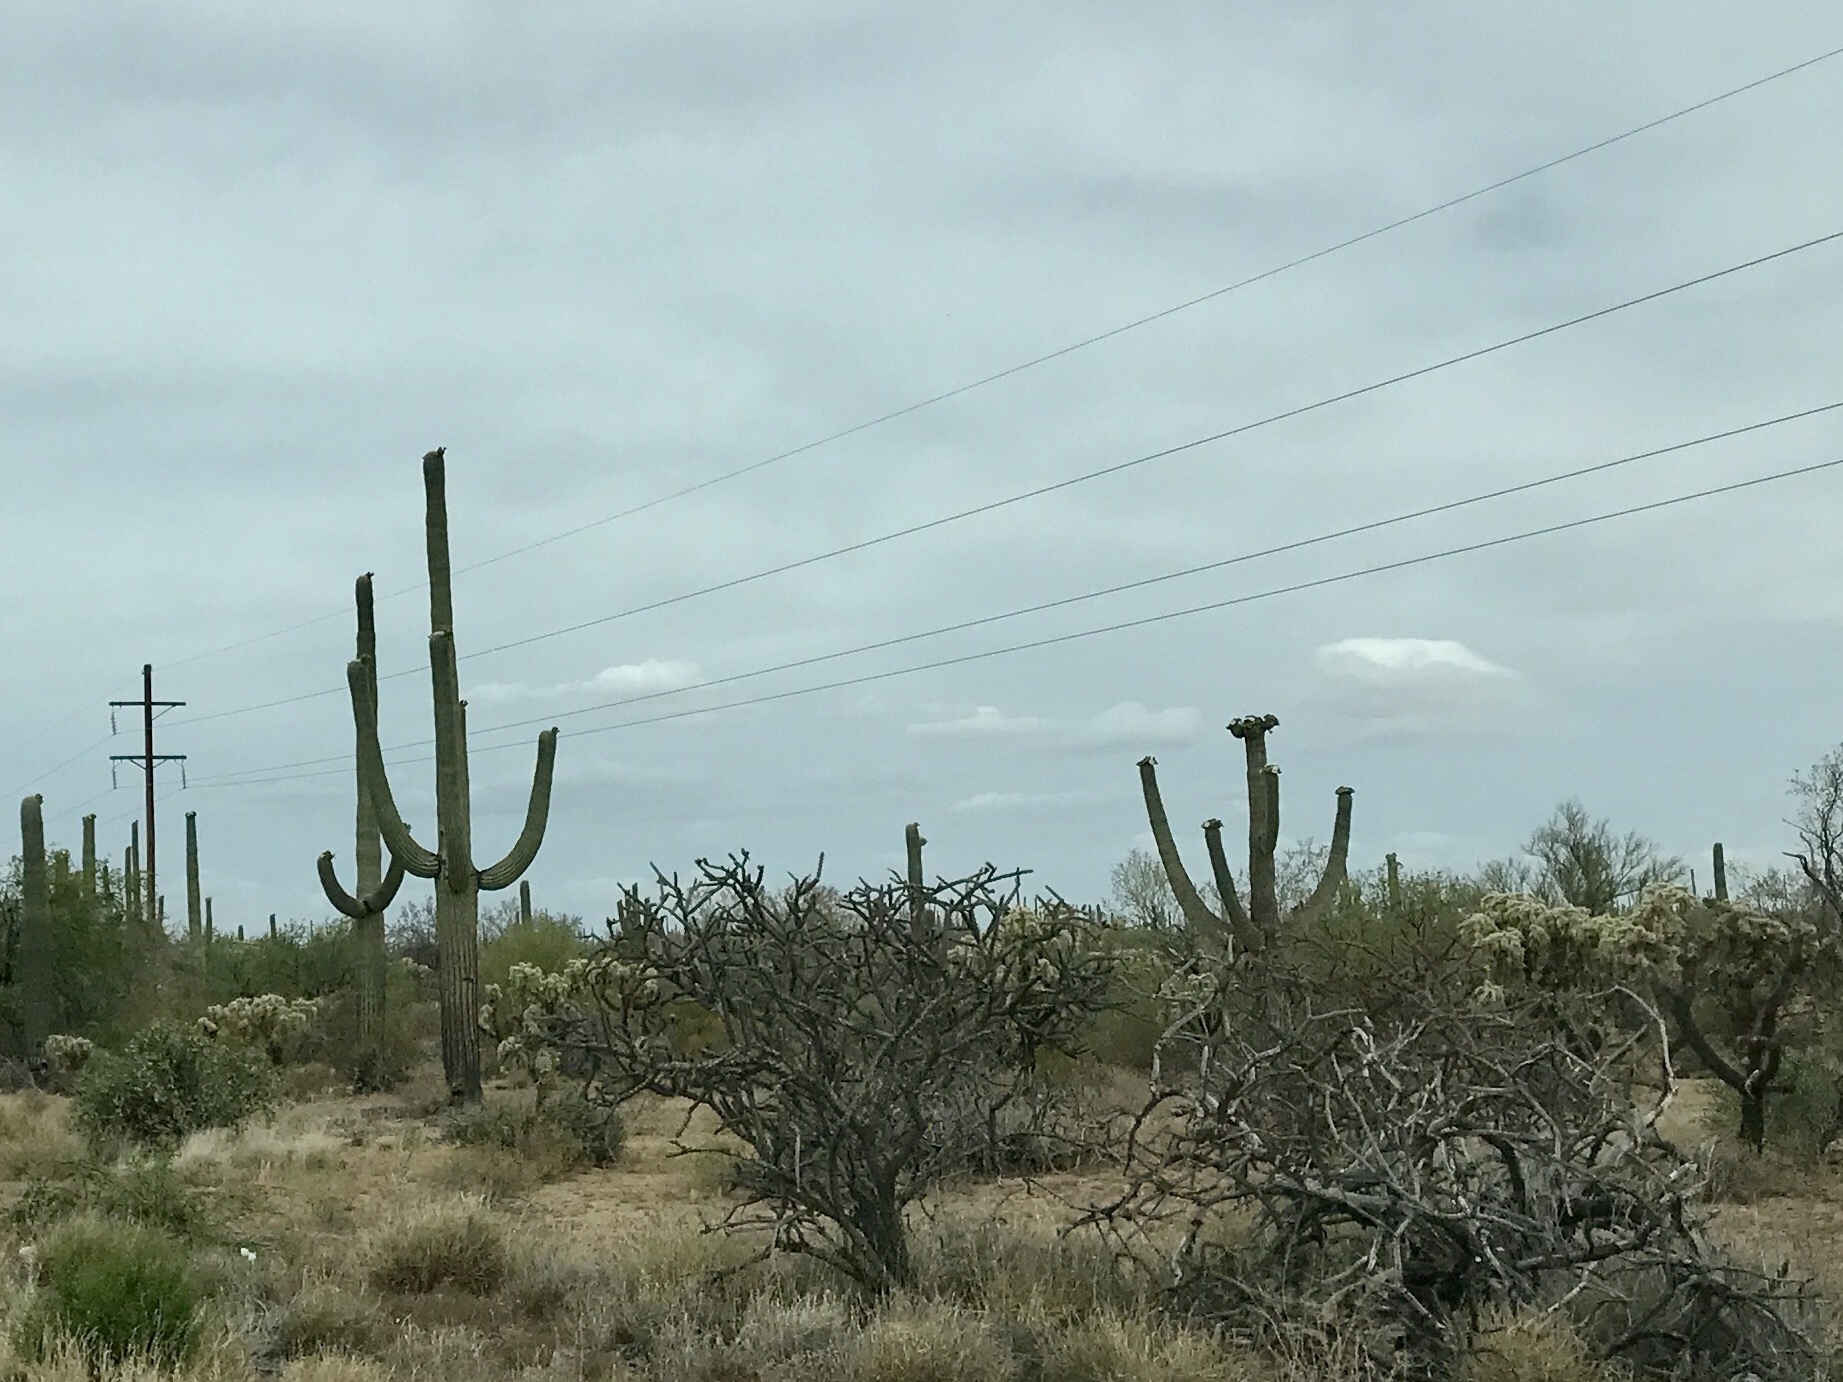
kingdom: Plantae
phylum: Tracheophyta
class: Magnoliopsida
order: Caryophyllales
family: Cactaceae
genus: Carnegiea
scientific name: Carnegiea gigantea
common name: Saguaro
